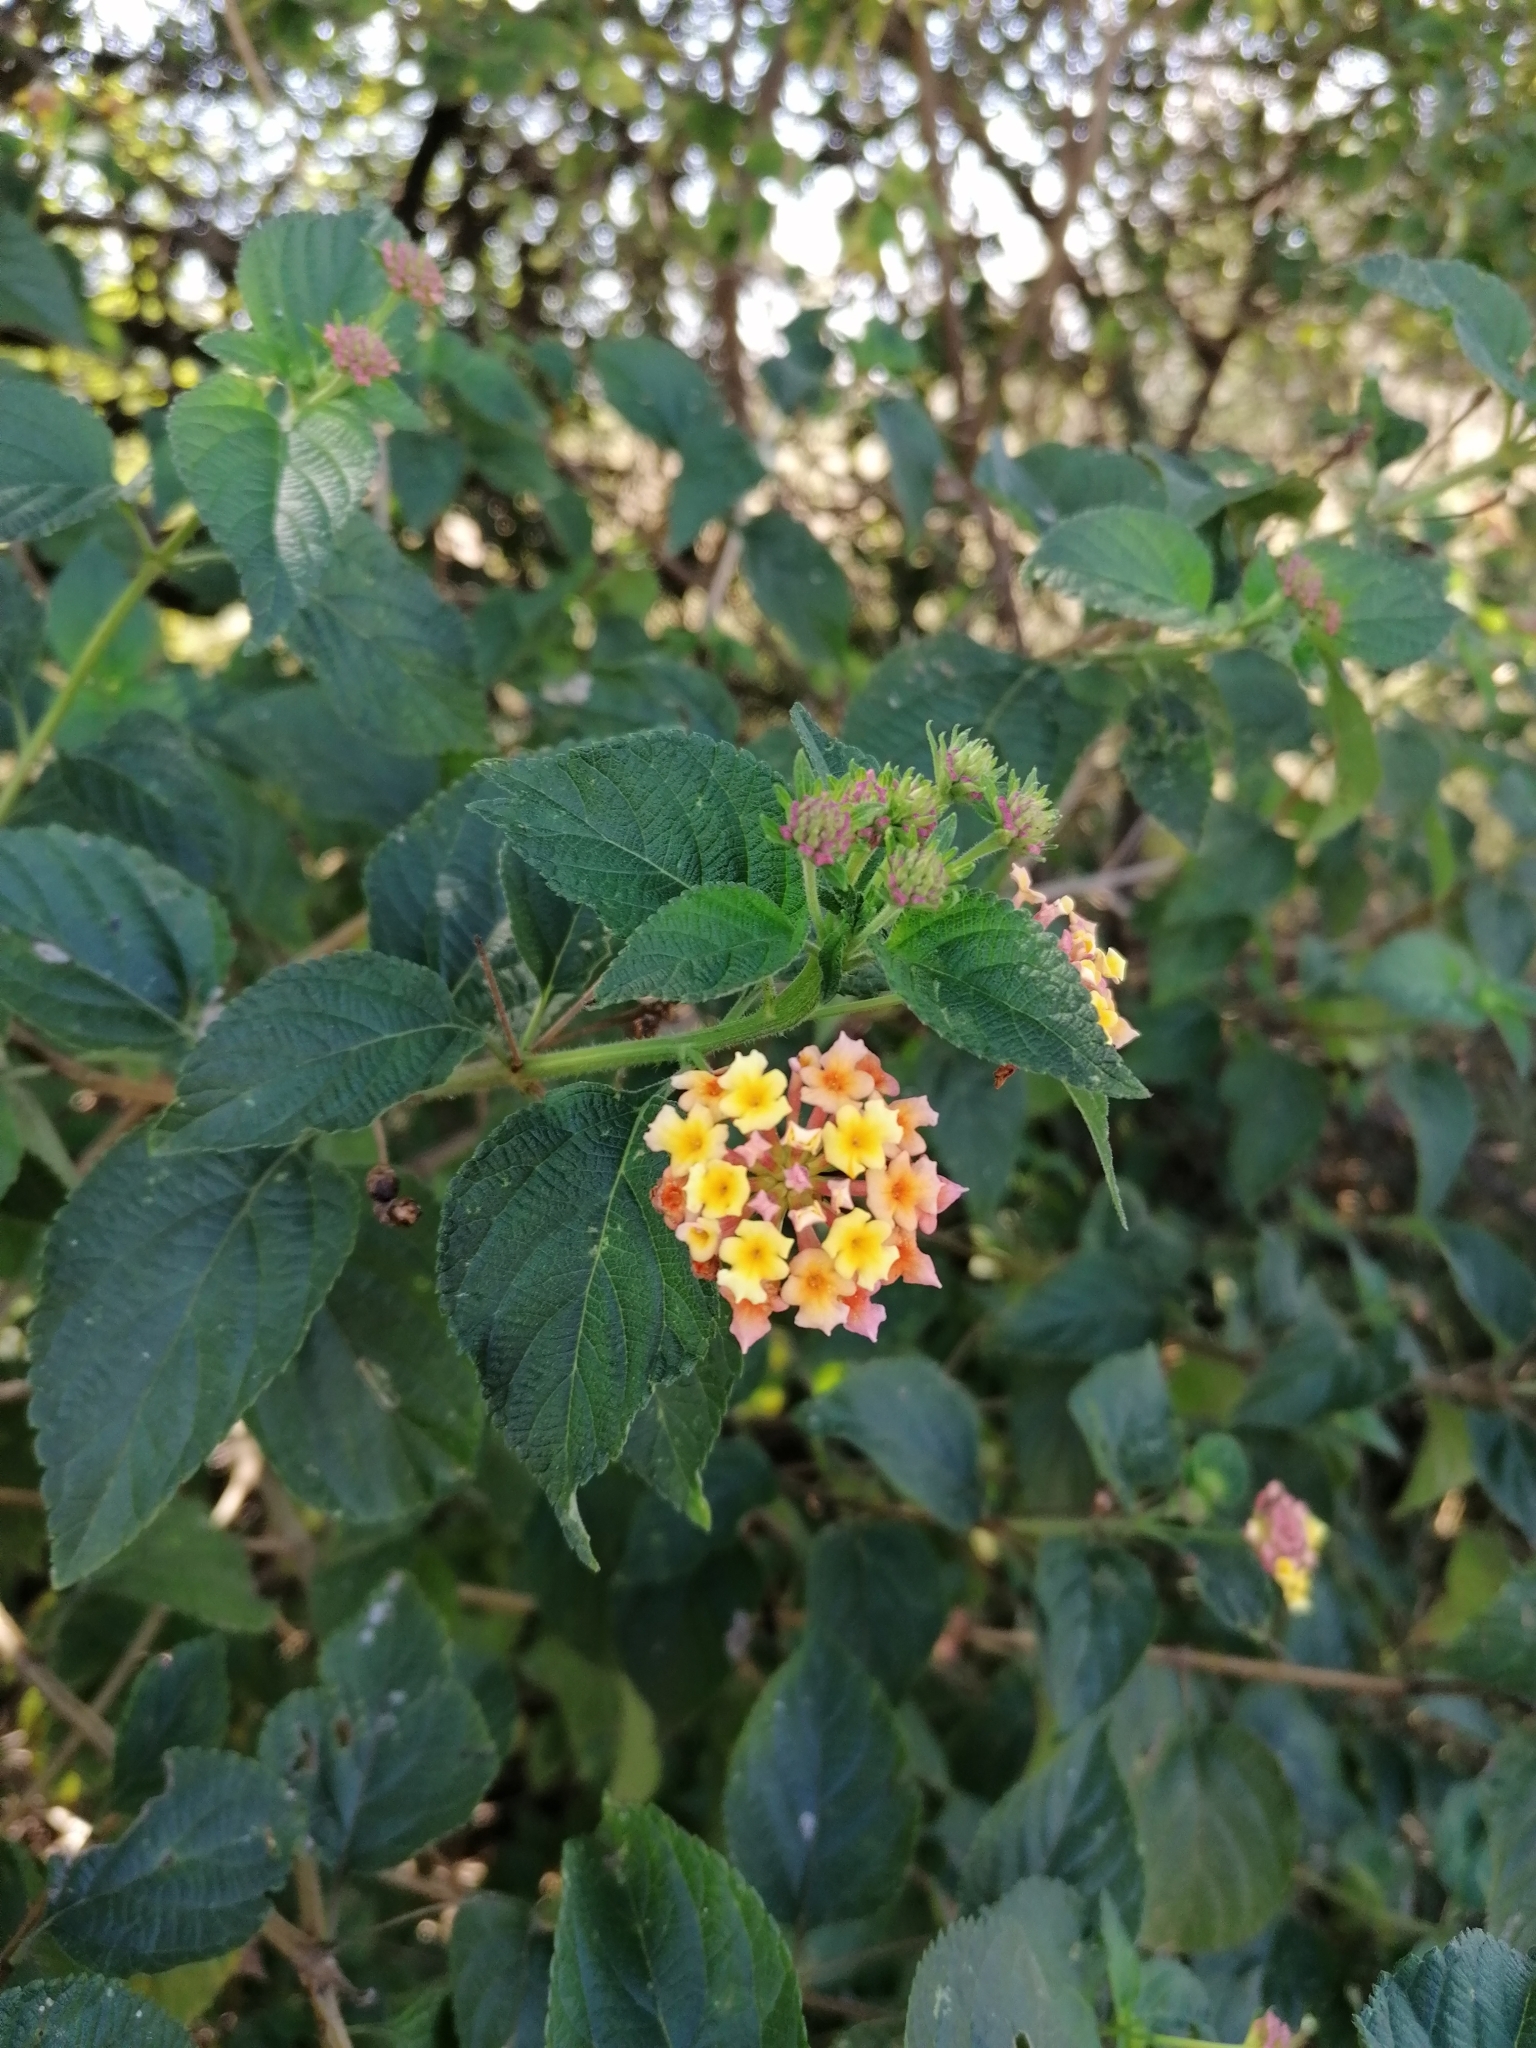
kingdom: Plantae
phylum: Tracheophyta
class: Magnoliopsida
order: Lamiales
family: Verbenaceae
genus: Lantana
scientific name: Lantana camara
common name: Lantana
